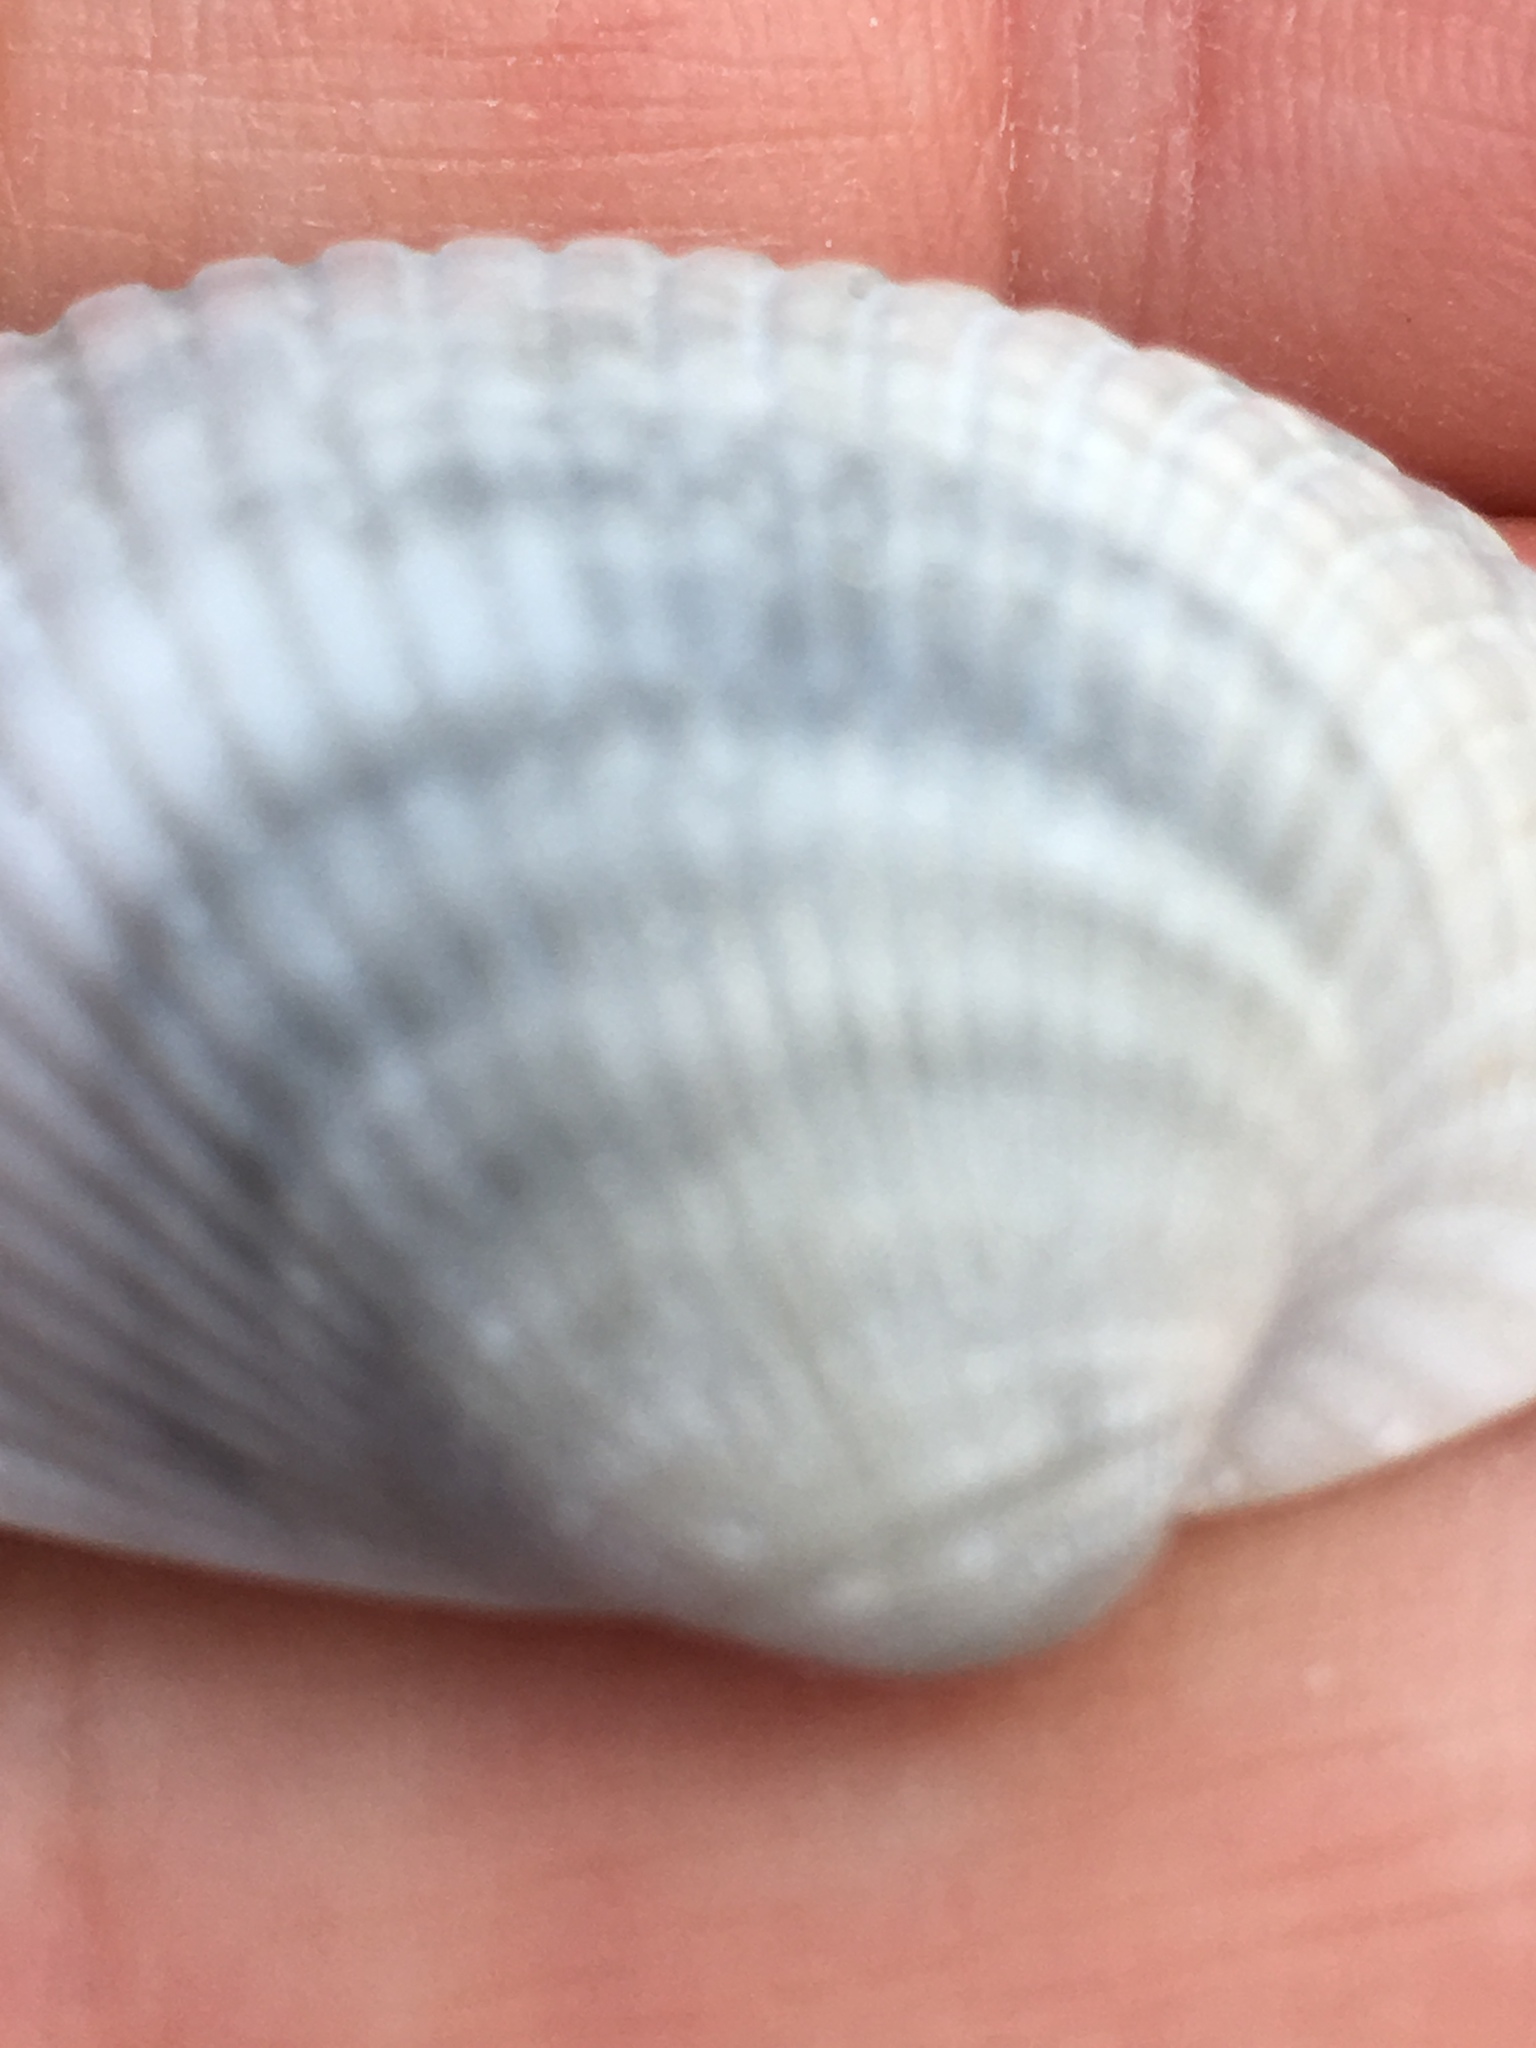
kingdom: Animalia
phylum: Mollusca
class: Bivalvia
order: Arcida
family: Arcidae
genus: Lunarca
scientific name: Lunarca ovalis
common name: Blood ark
